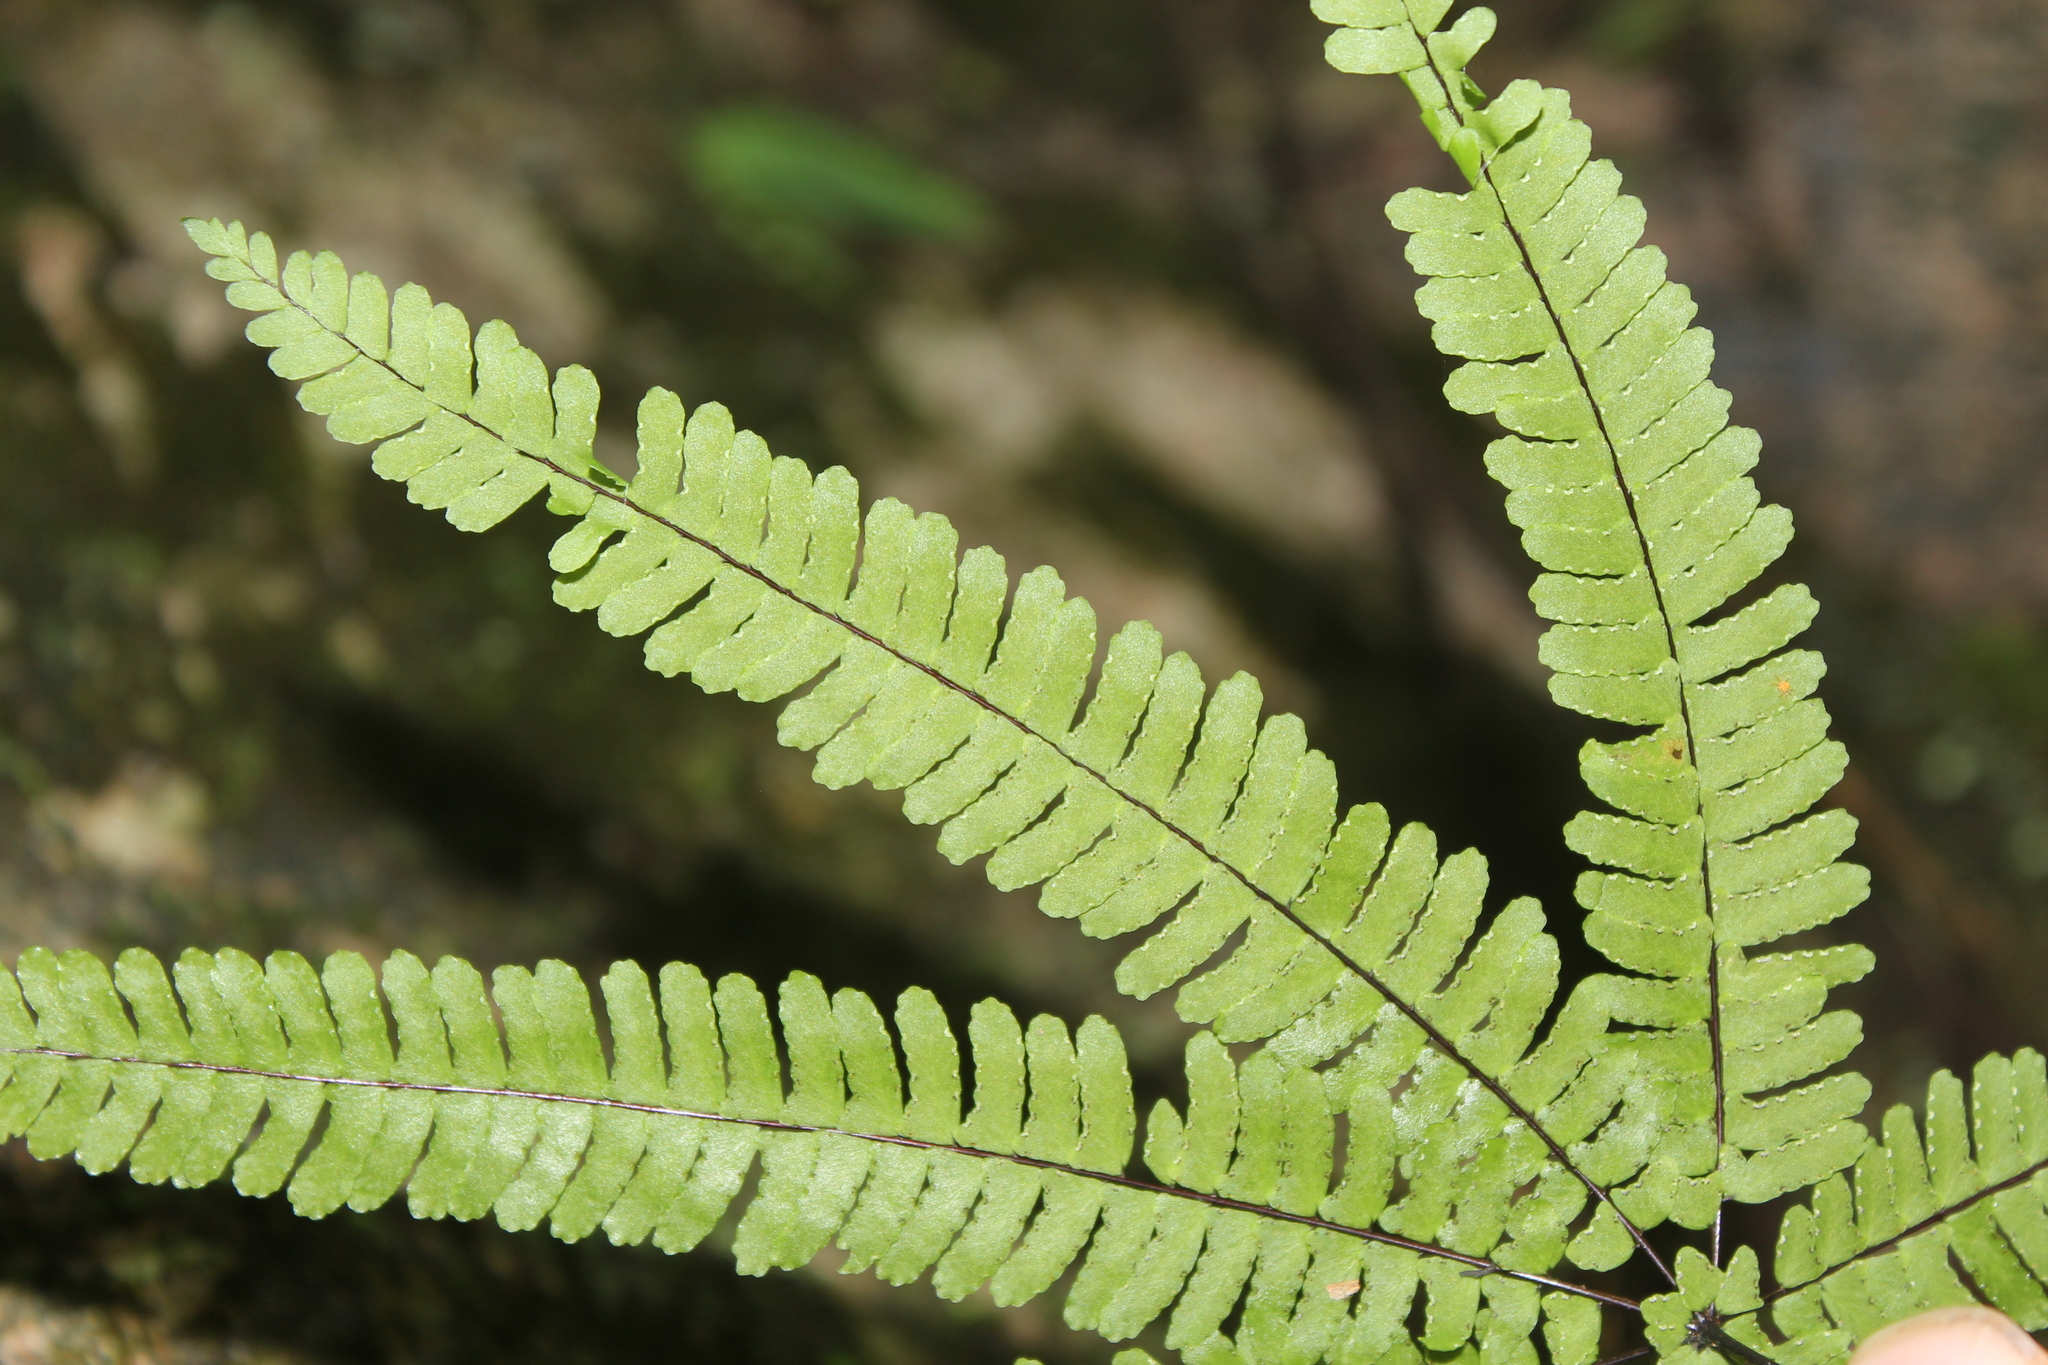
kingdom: Plantae
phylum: Tracheophyta
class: Polypodiopsida
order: Polypodiales
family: Pteridaceae
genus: Adiantopsis
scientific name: Adiantopsis radiata
